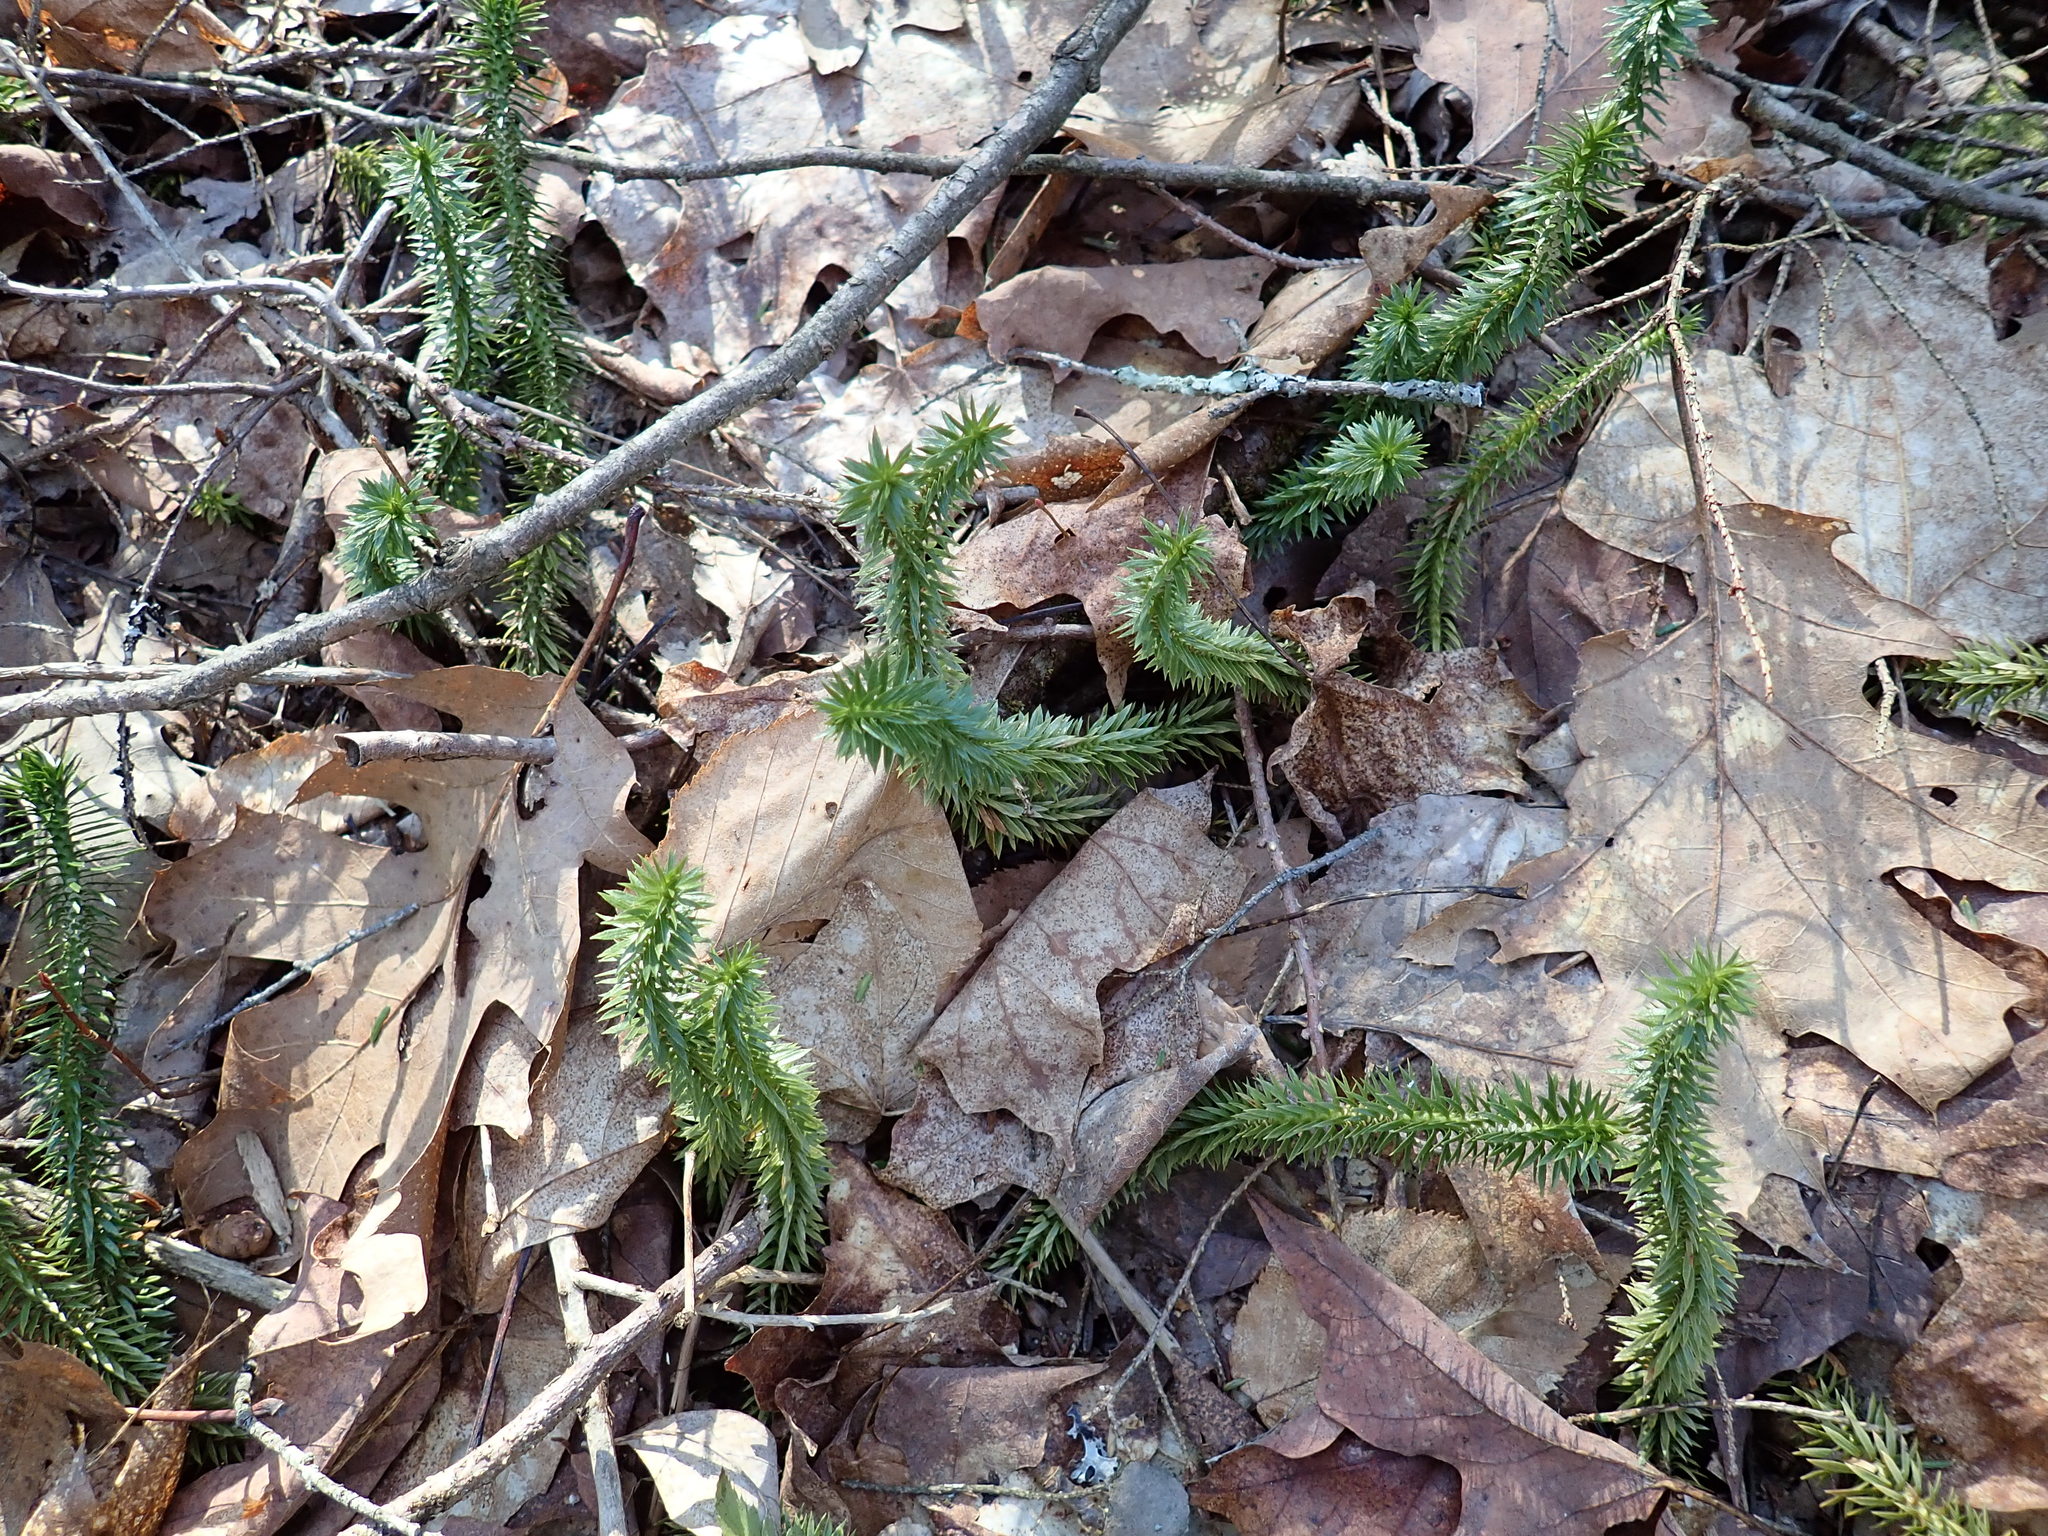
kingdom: Plantae
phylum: Tracheophyta
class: Lycopodiopsida
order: Lycopodiales
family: Lycopodiaceae
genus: Huperzia
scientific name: Huperzia lucidula
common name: Shining clubmoss
